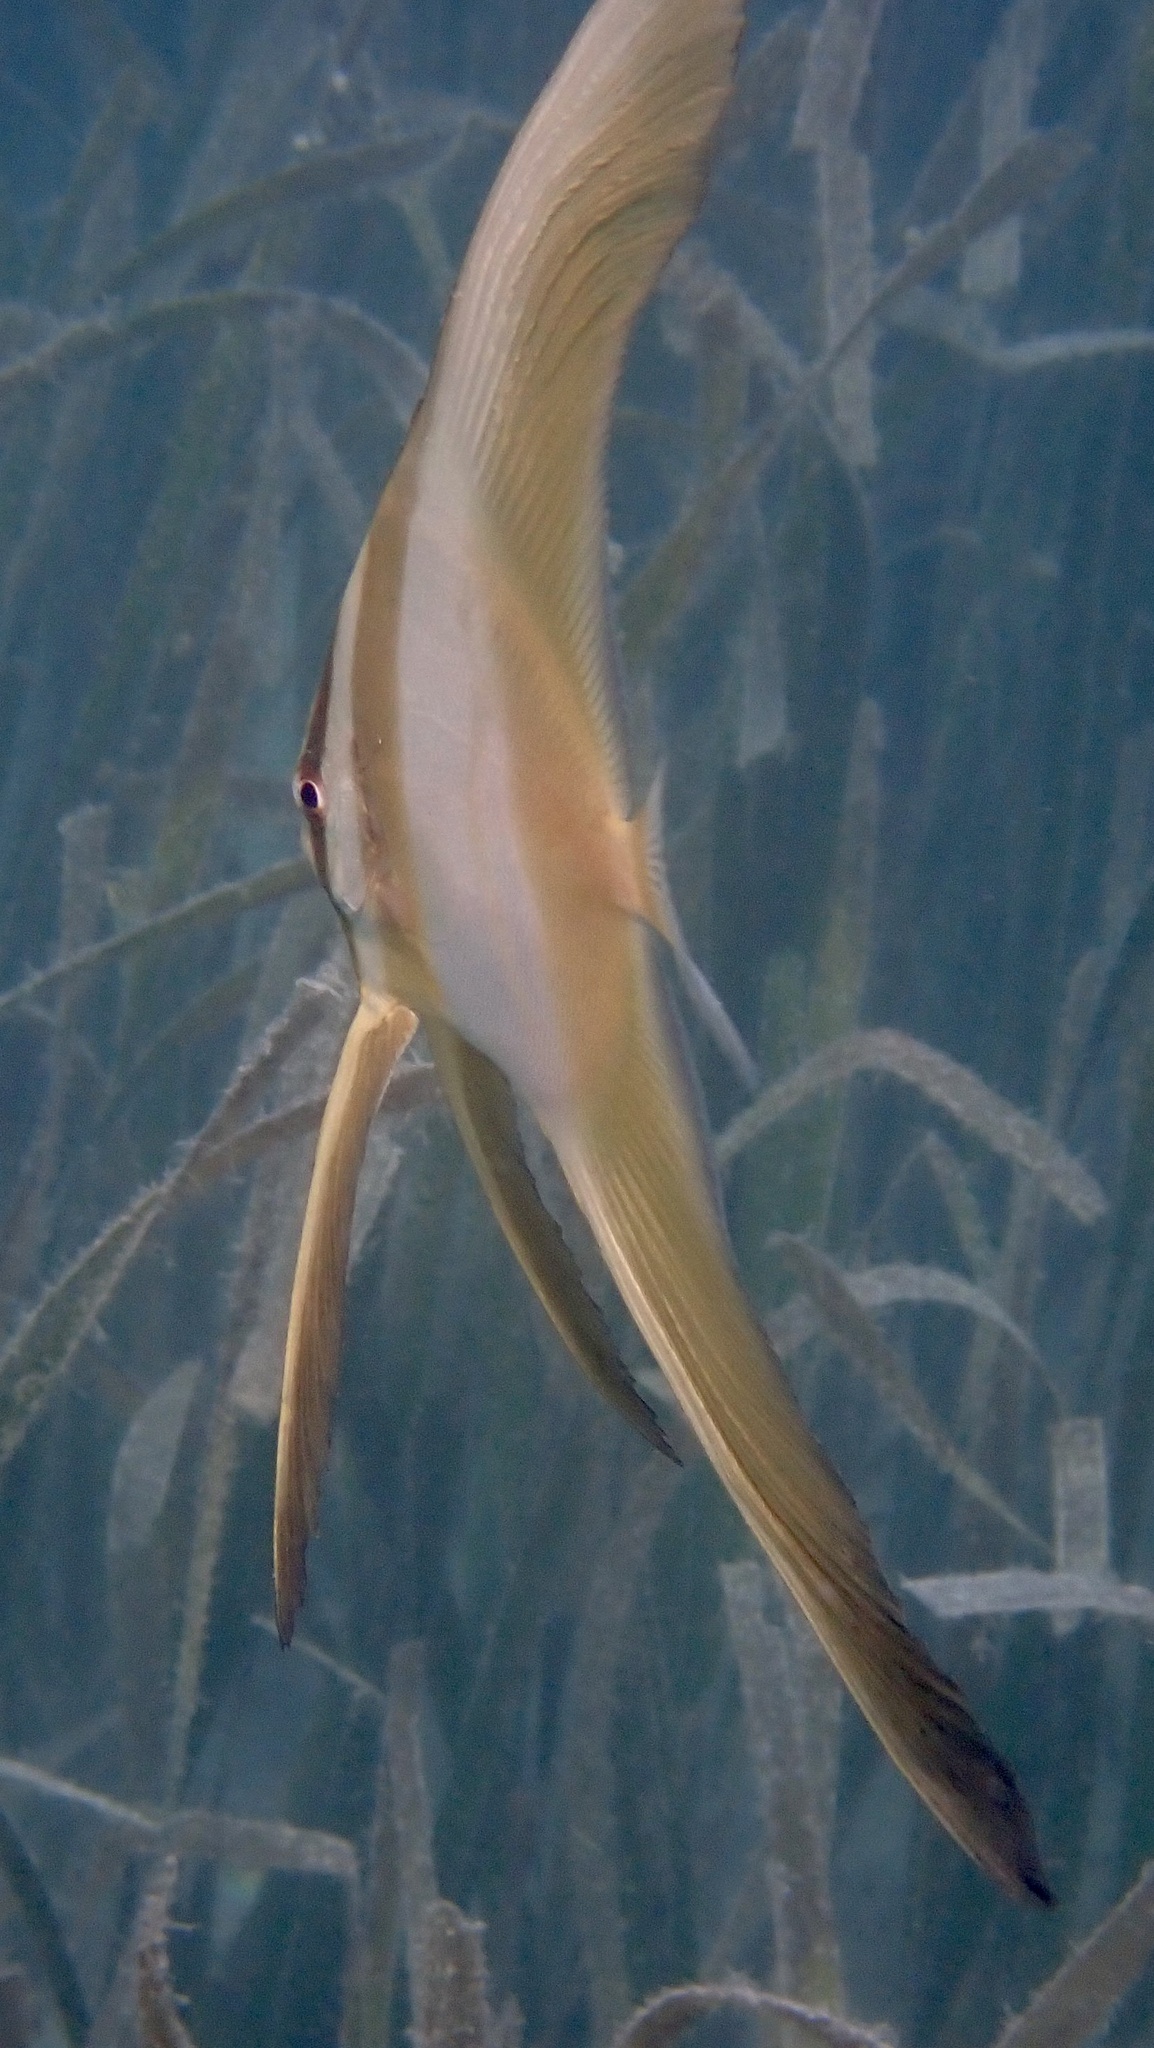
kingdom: Animalia
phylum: Chordata
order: Perciformes
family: Ephippidae
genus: Platax
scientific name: Platax teira
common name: Longfin baitfish
